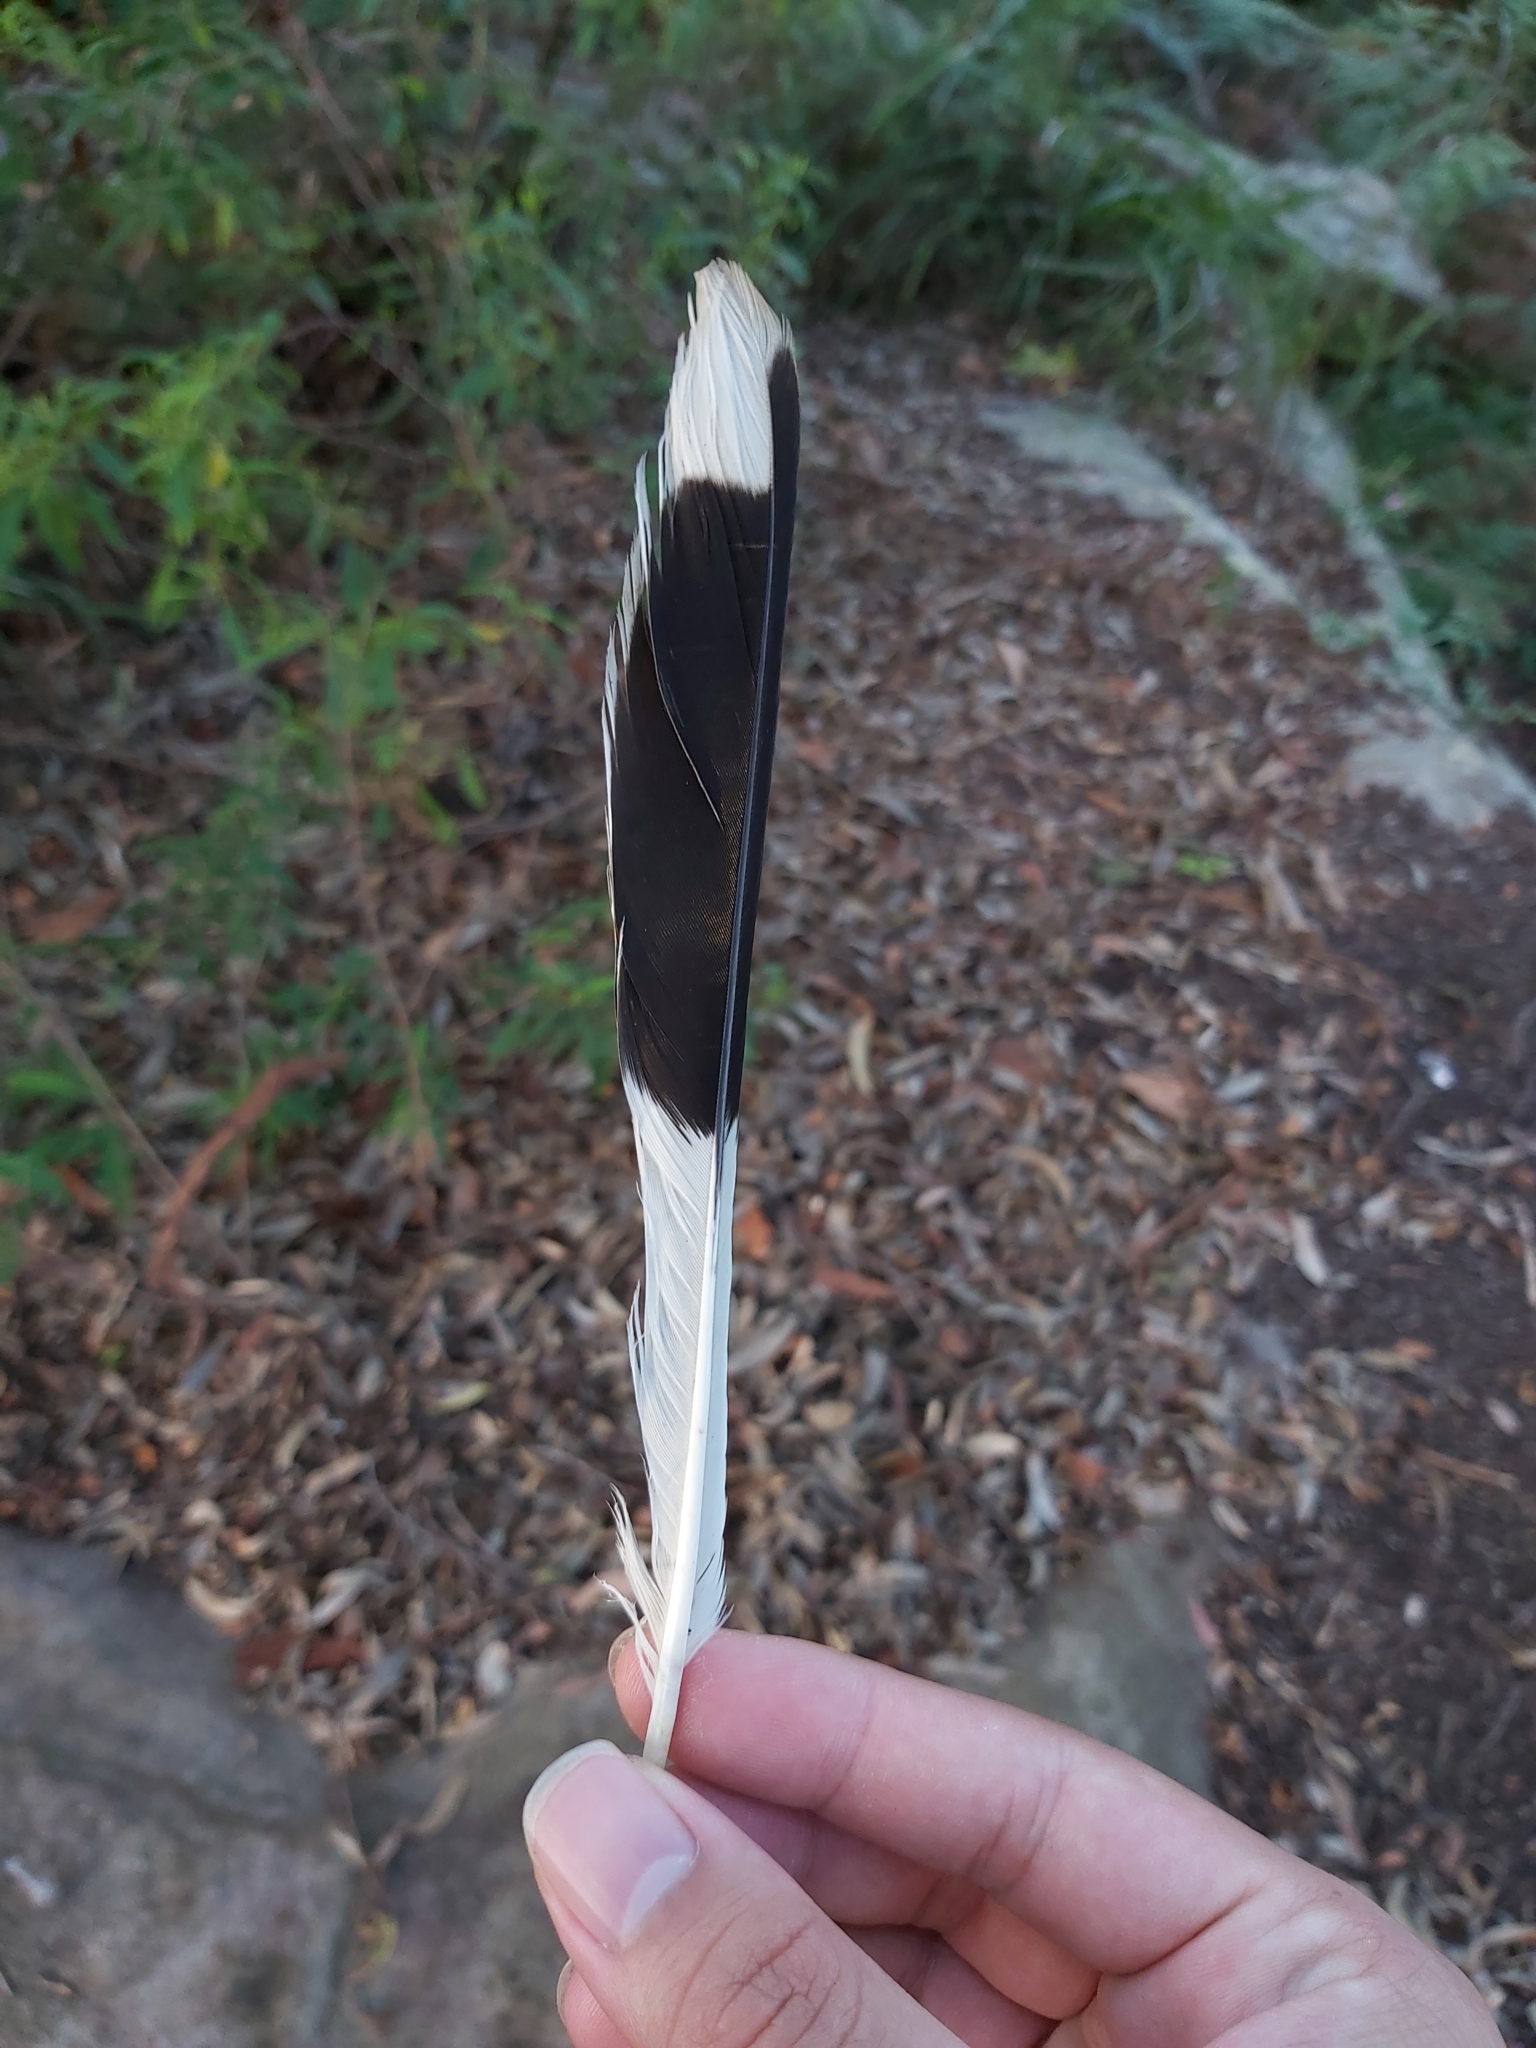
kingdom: Animalia
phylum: Chordata
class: Aves
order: Passeriformes
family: Cracticidae
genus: Strepera
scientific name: Strepera graculina
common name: Pied currawong
